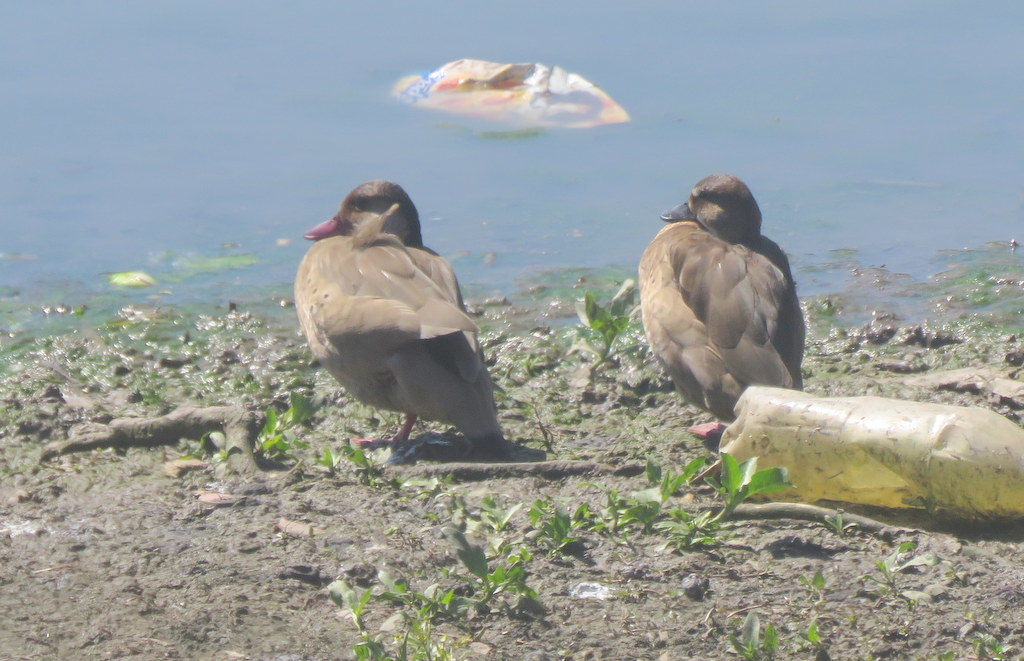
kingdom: Animalia
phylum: Chordata
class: Aves
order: Anseriformes
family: Anatidae
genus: Amazonetta
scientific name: Amazonetta brasiliensis
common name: Brazilian teal
